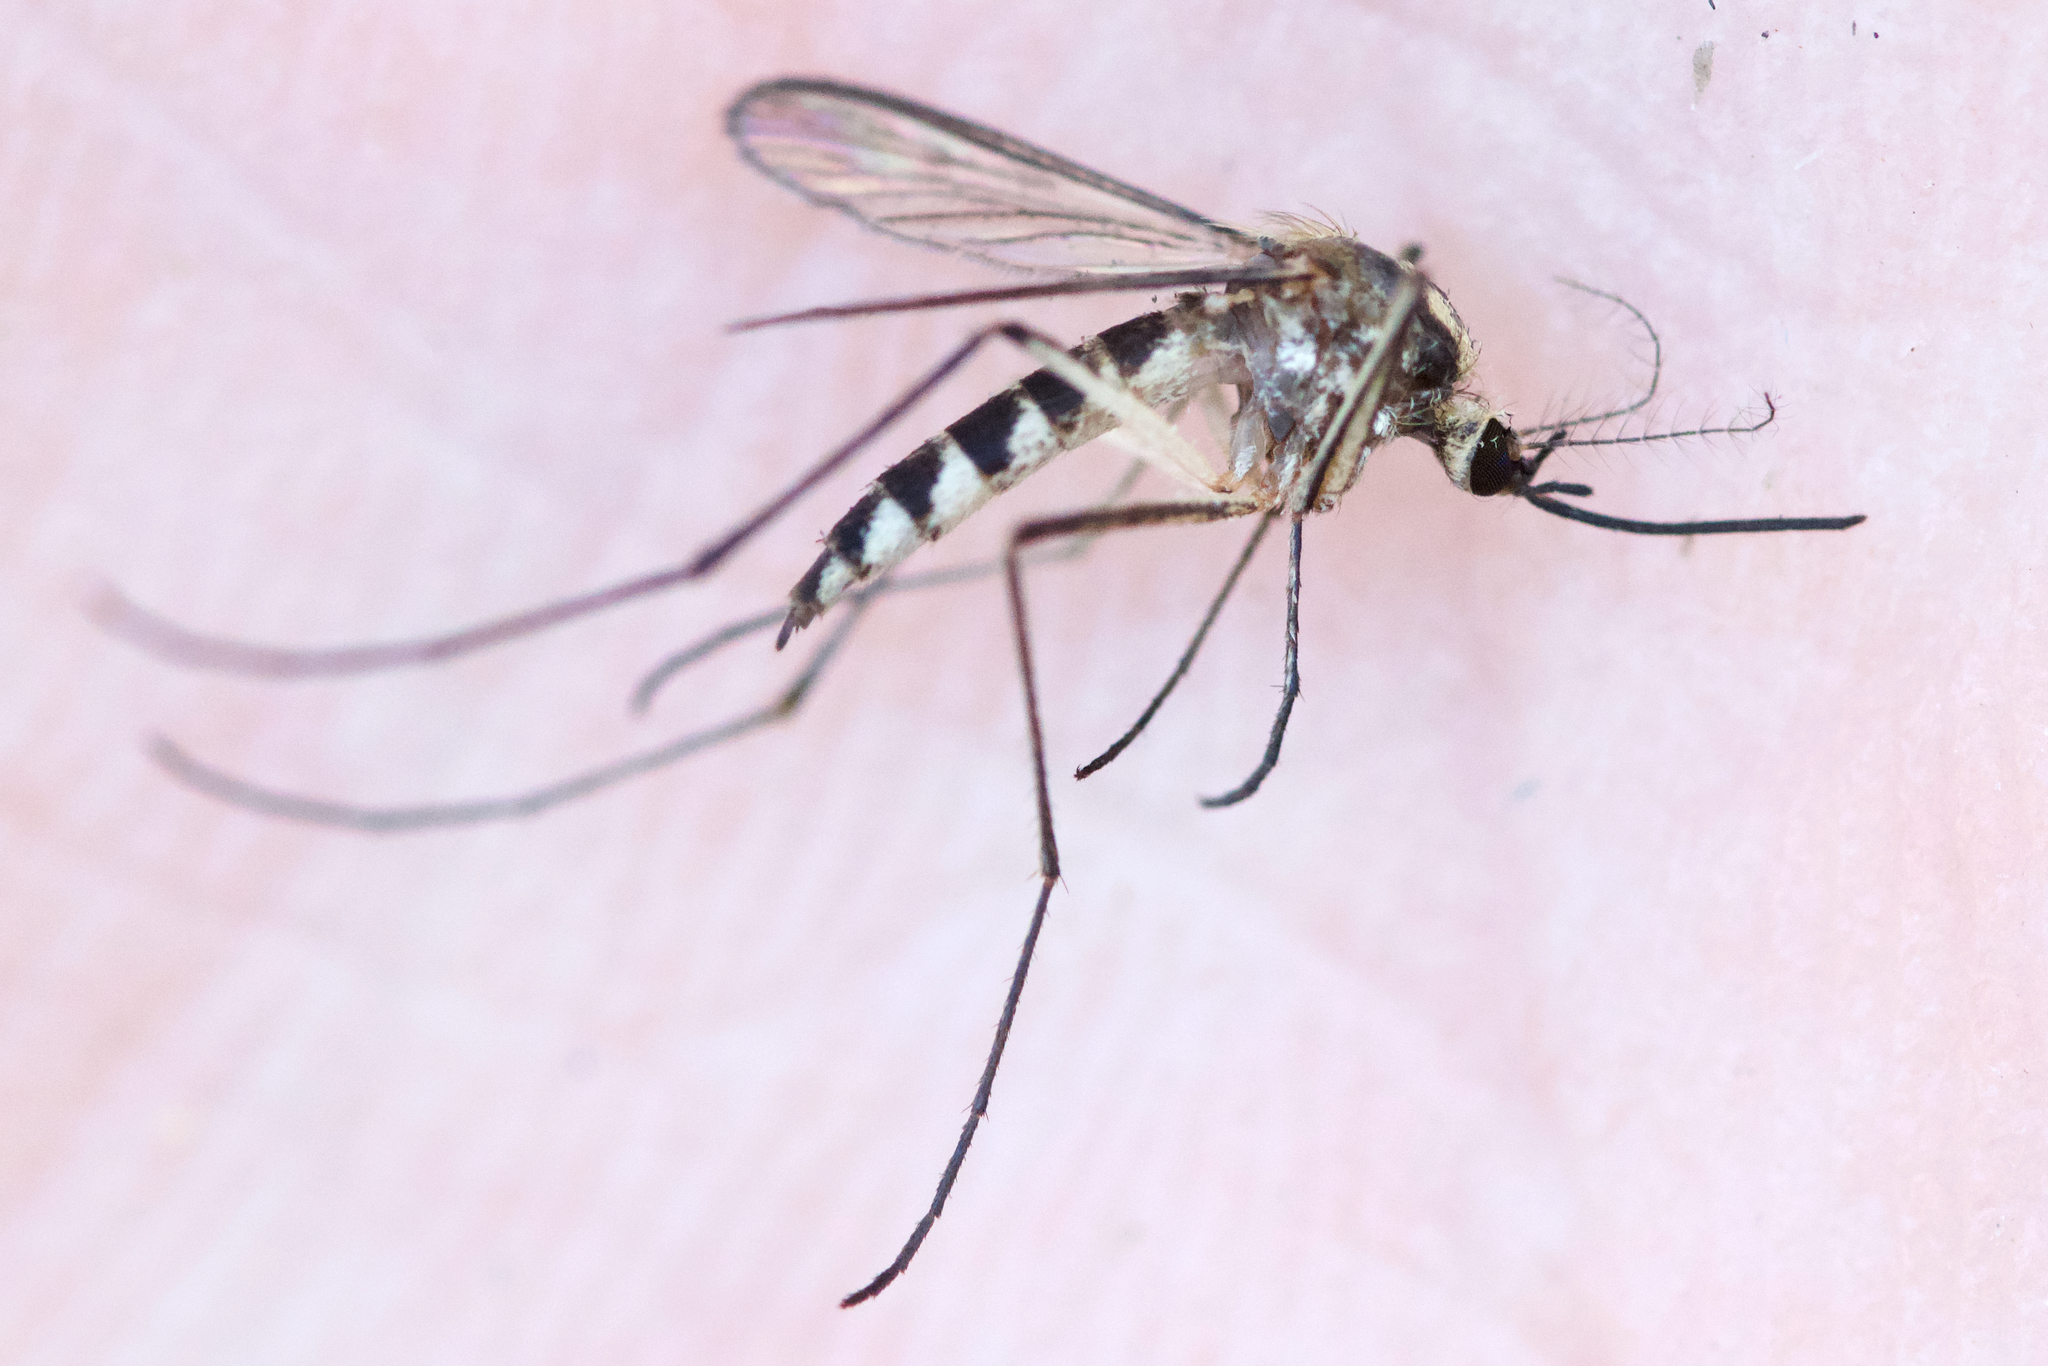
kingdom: Animalia
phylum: Arthropoda
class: Insecta
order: Diptera
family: Culicidae
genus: Aedes
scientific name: Aedes trivittatus
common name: Plains floodwater mosquito
